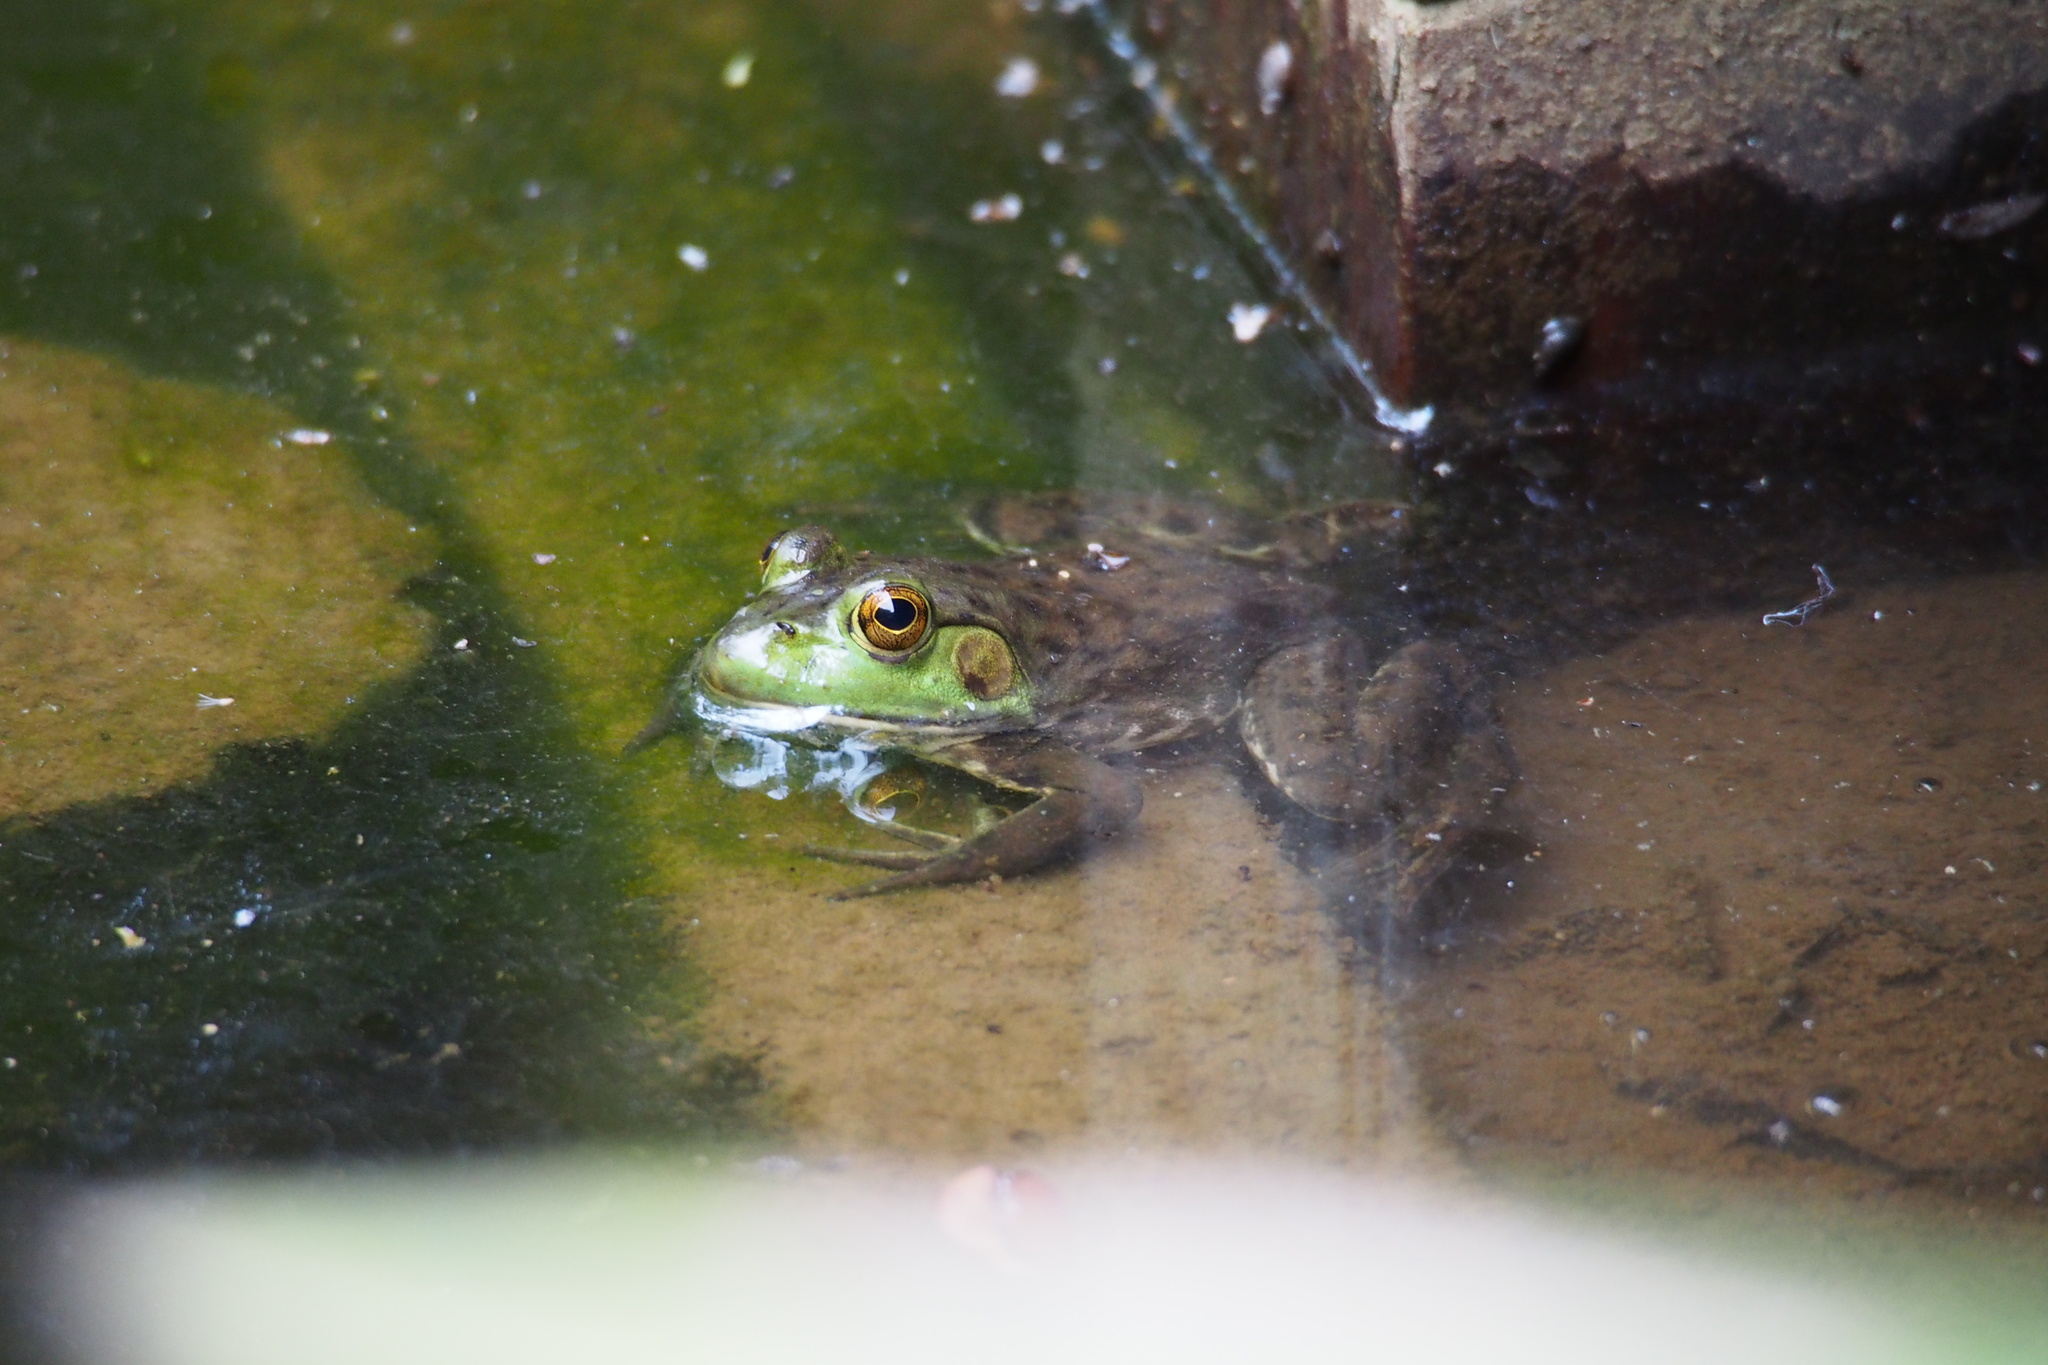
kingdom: Animalia
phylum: Chordata
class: Amphibia
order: Anura
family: Ranidae
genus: Lithobates
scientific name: Lithobates catesbeianus
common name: American bullfrog
